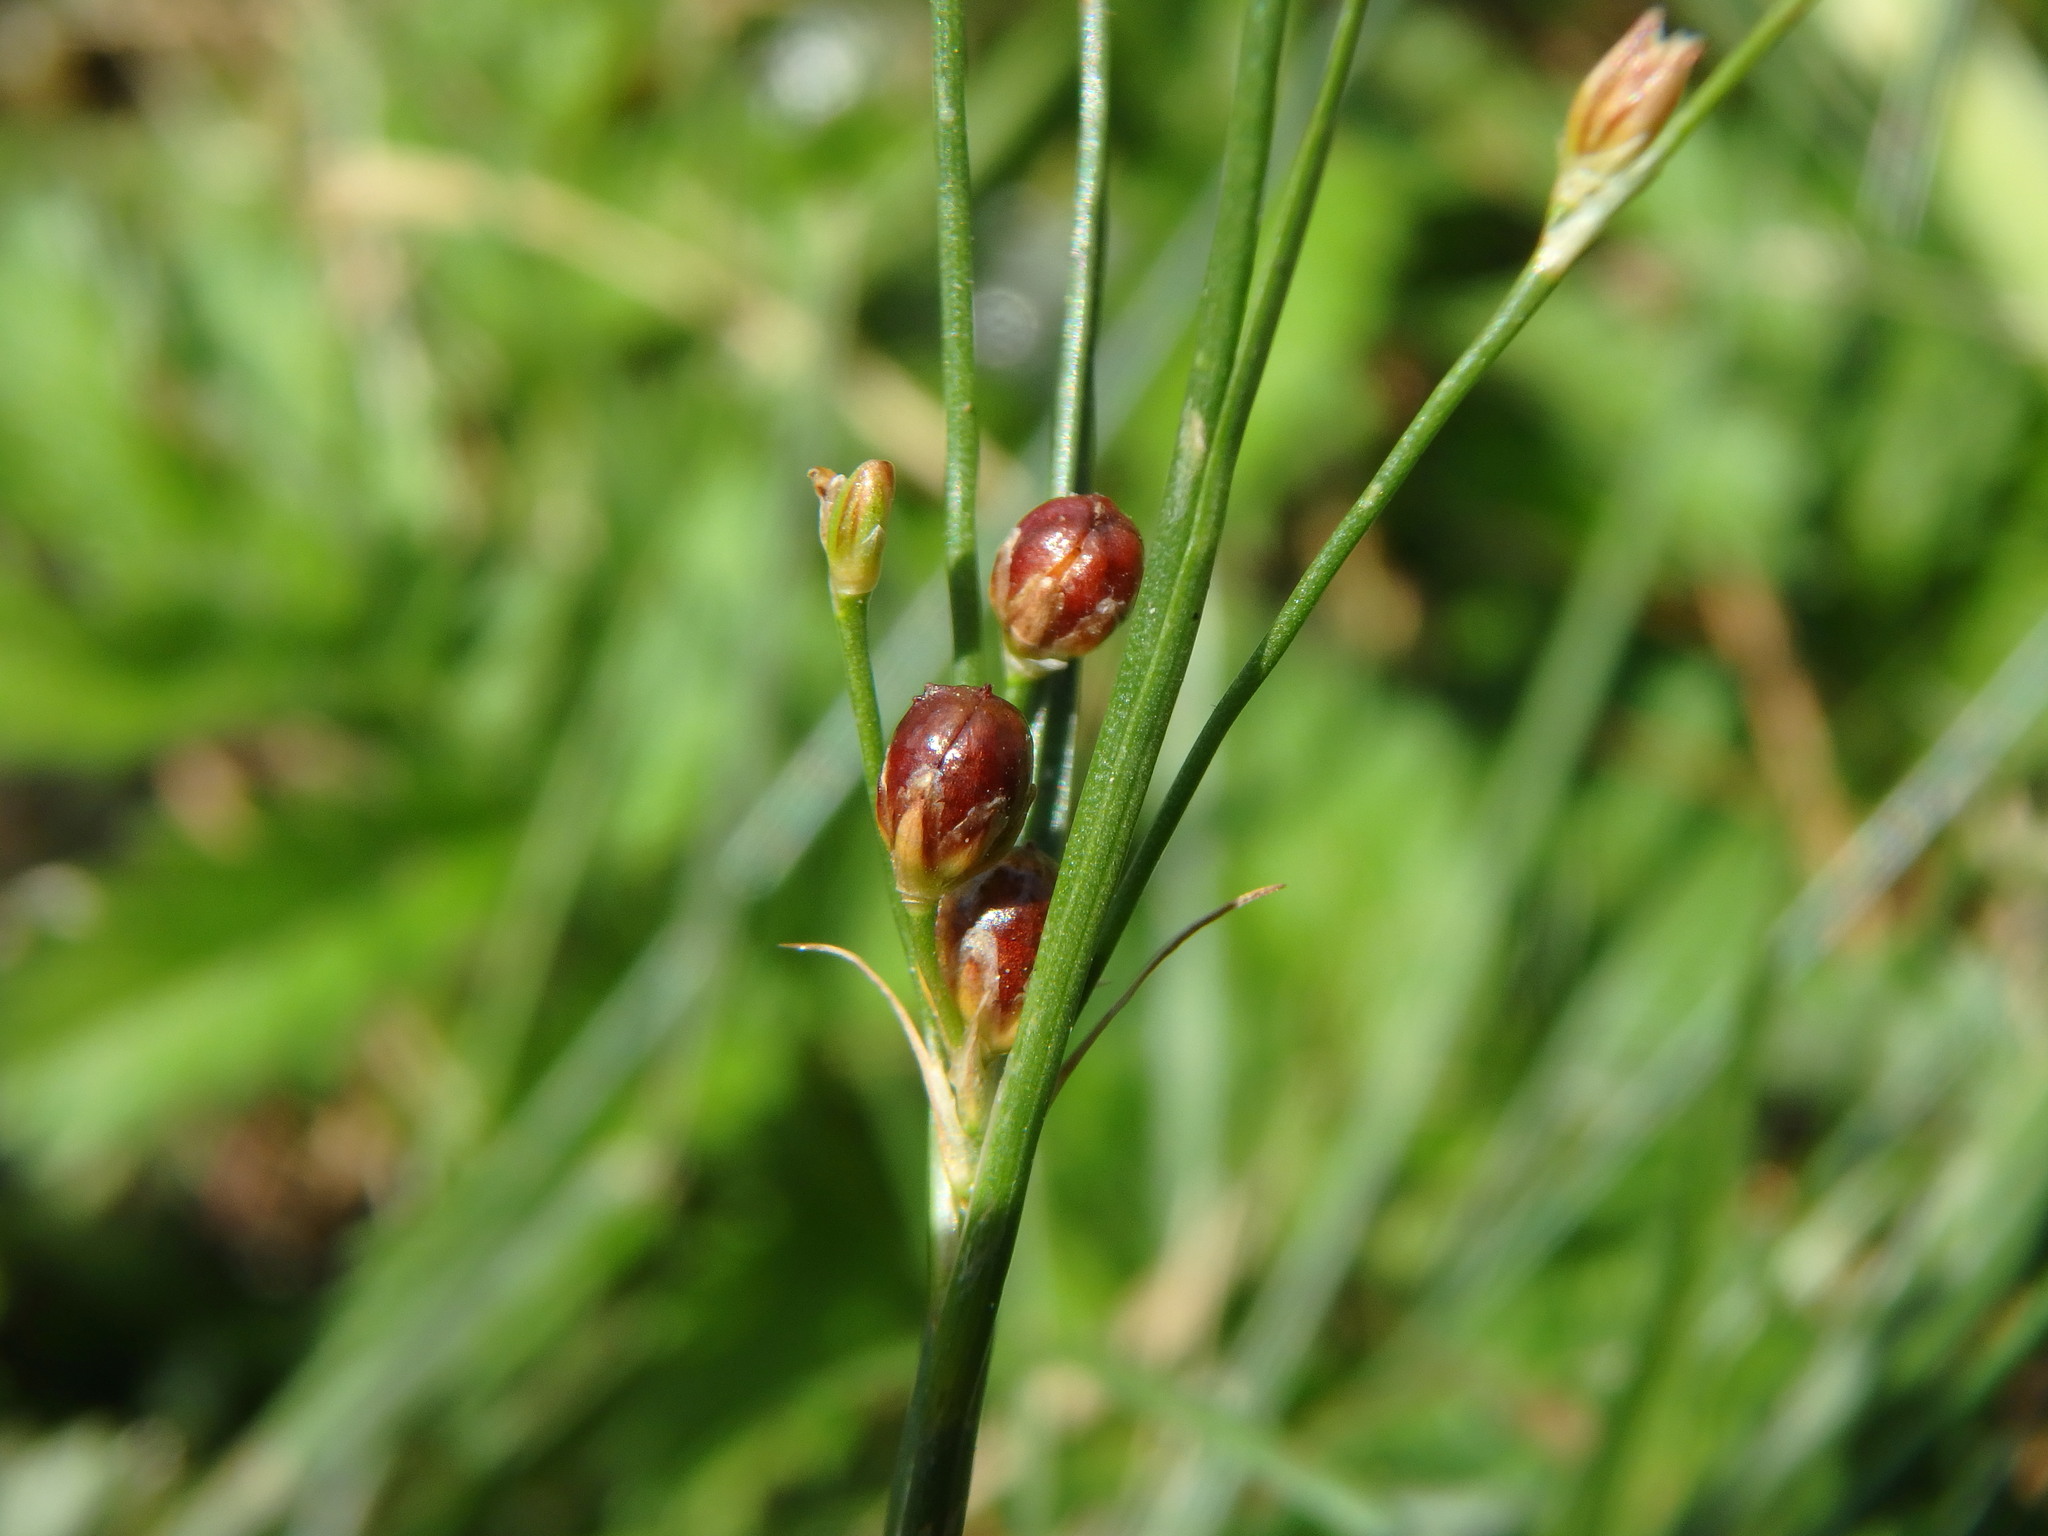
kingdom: Plantae
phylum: Tracheophyta
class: Liliopsida
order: Poales
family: Juncaceae
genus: Juncus
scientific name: Juncus compressus
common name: Round-fruited rush
